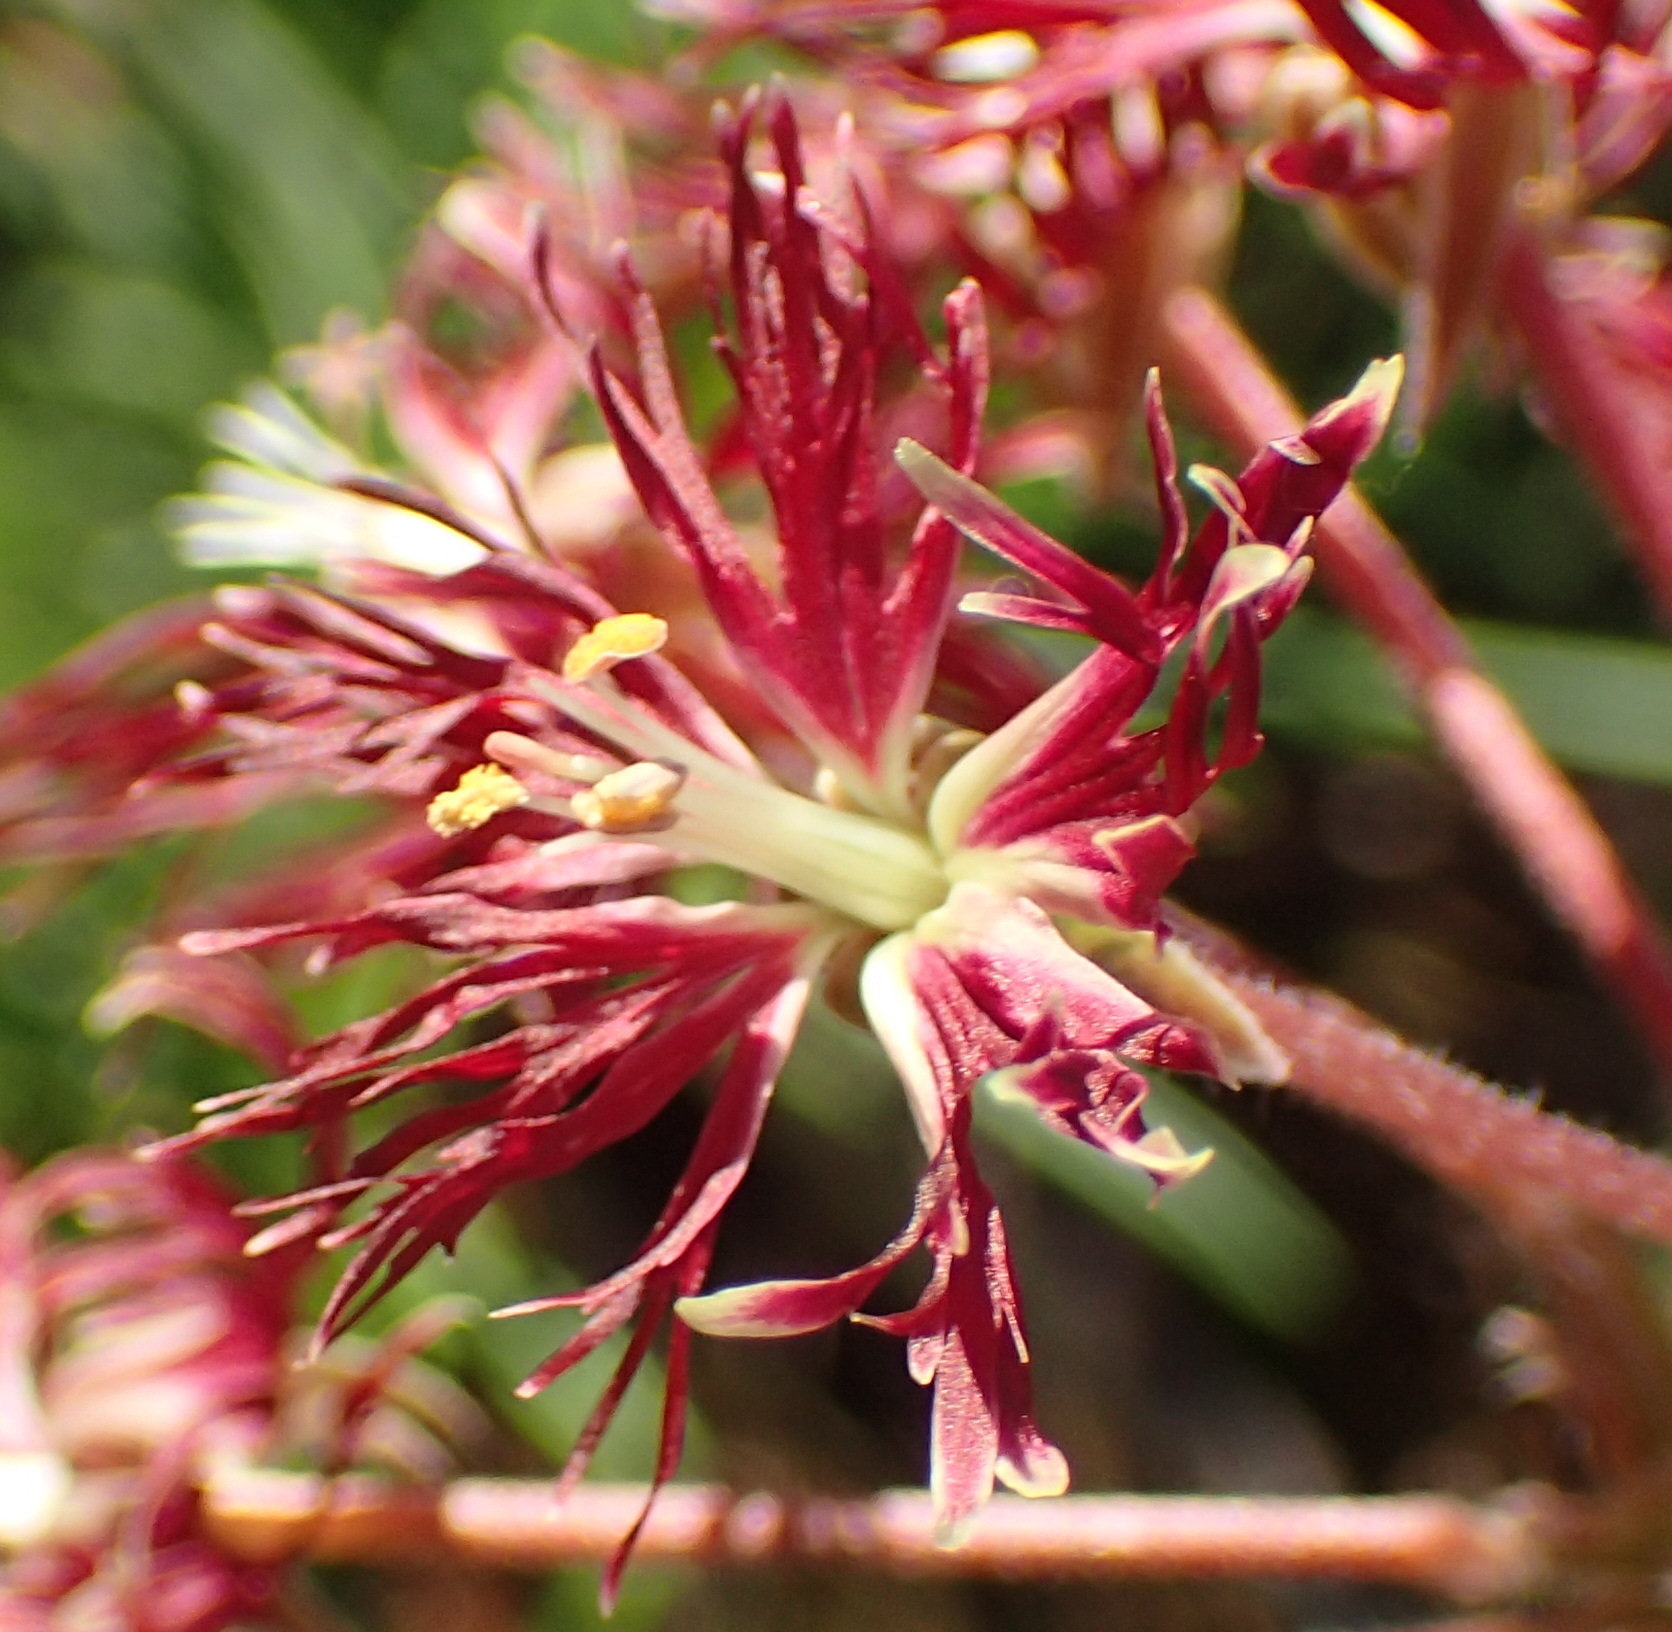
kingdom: Plantae
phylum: Tracheophyta
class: Magnoliopsida
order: Geraniales
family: Geraniaceae
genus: Pelargonium
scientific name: Pelargonium caffrum
